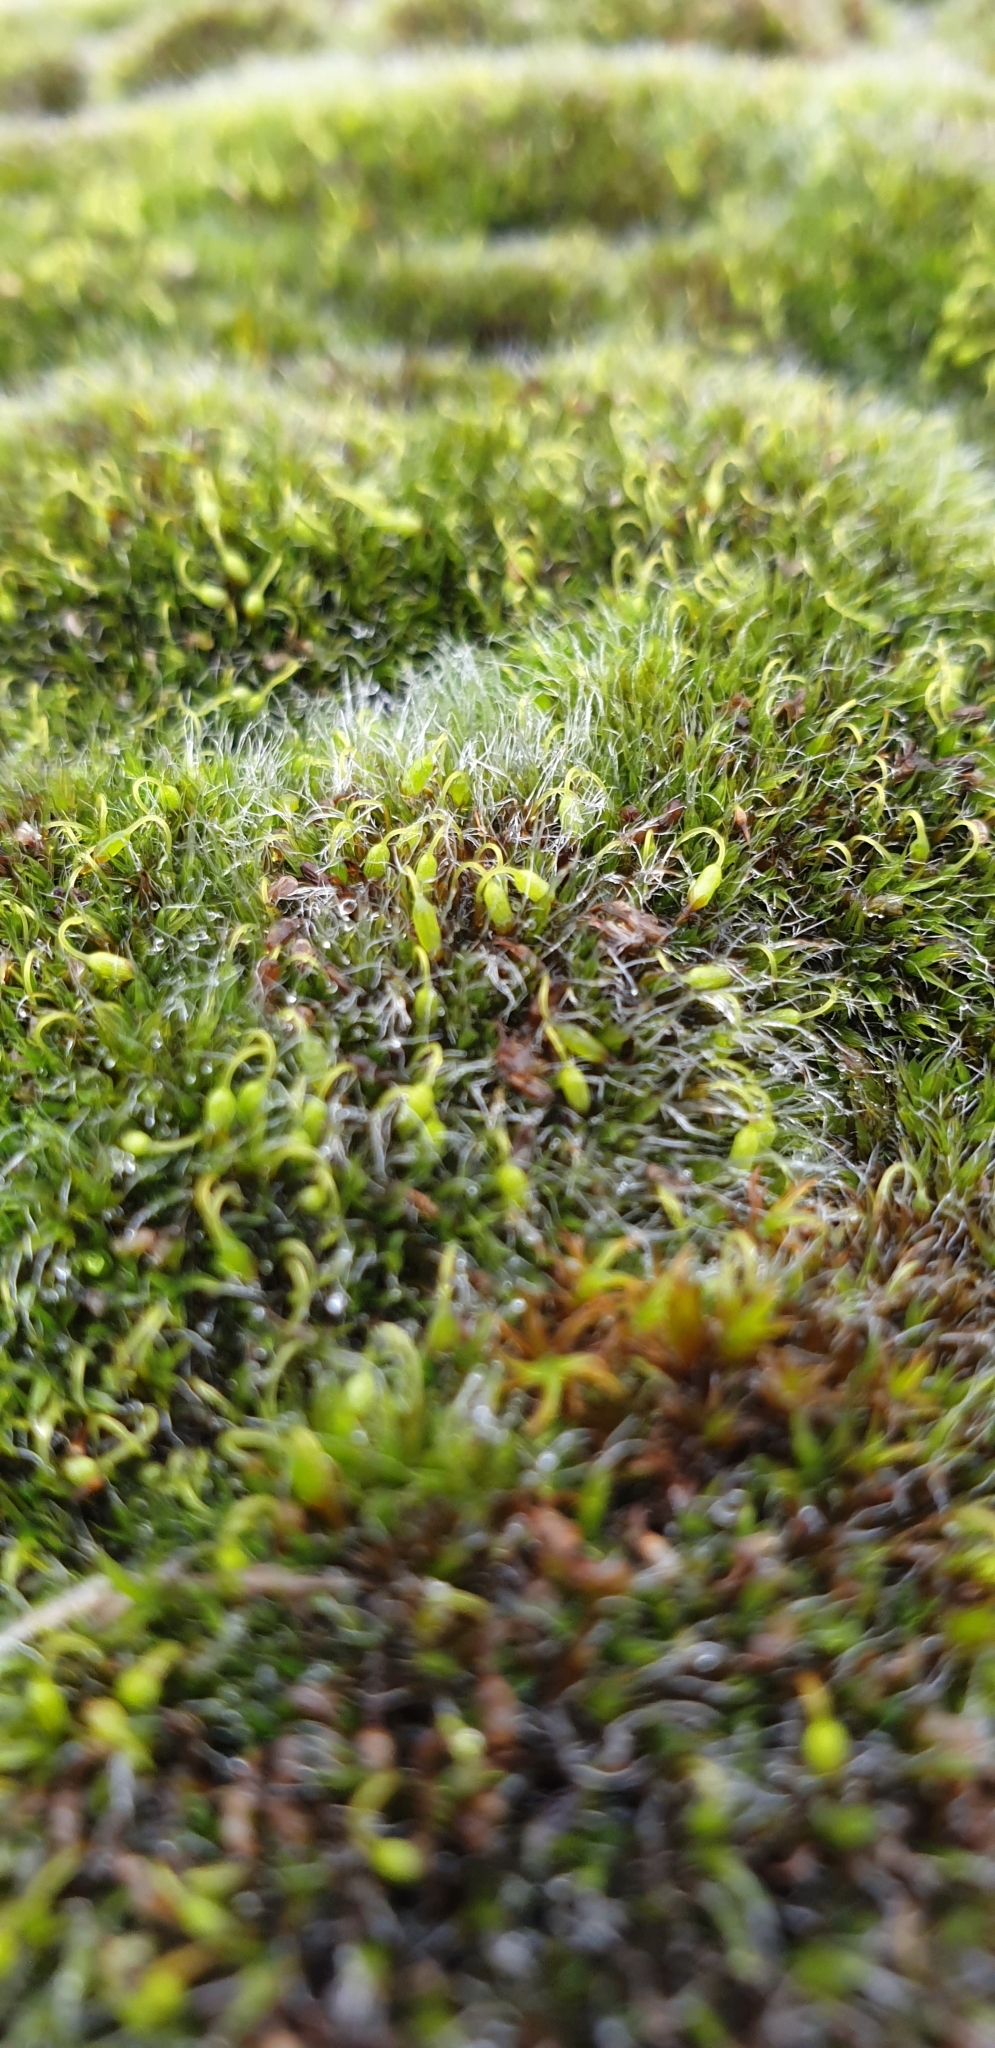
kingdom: Plantae
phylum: Bryophyta
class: Bryopsida
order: Grimmiales
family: Grimmiaceae
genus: Grimmia
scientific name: Grimmia pulvinata
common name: Grey-cushioned grimmia
